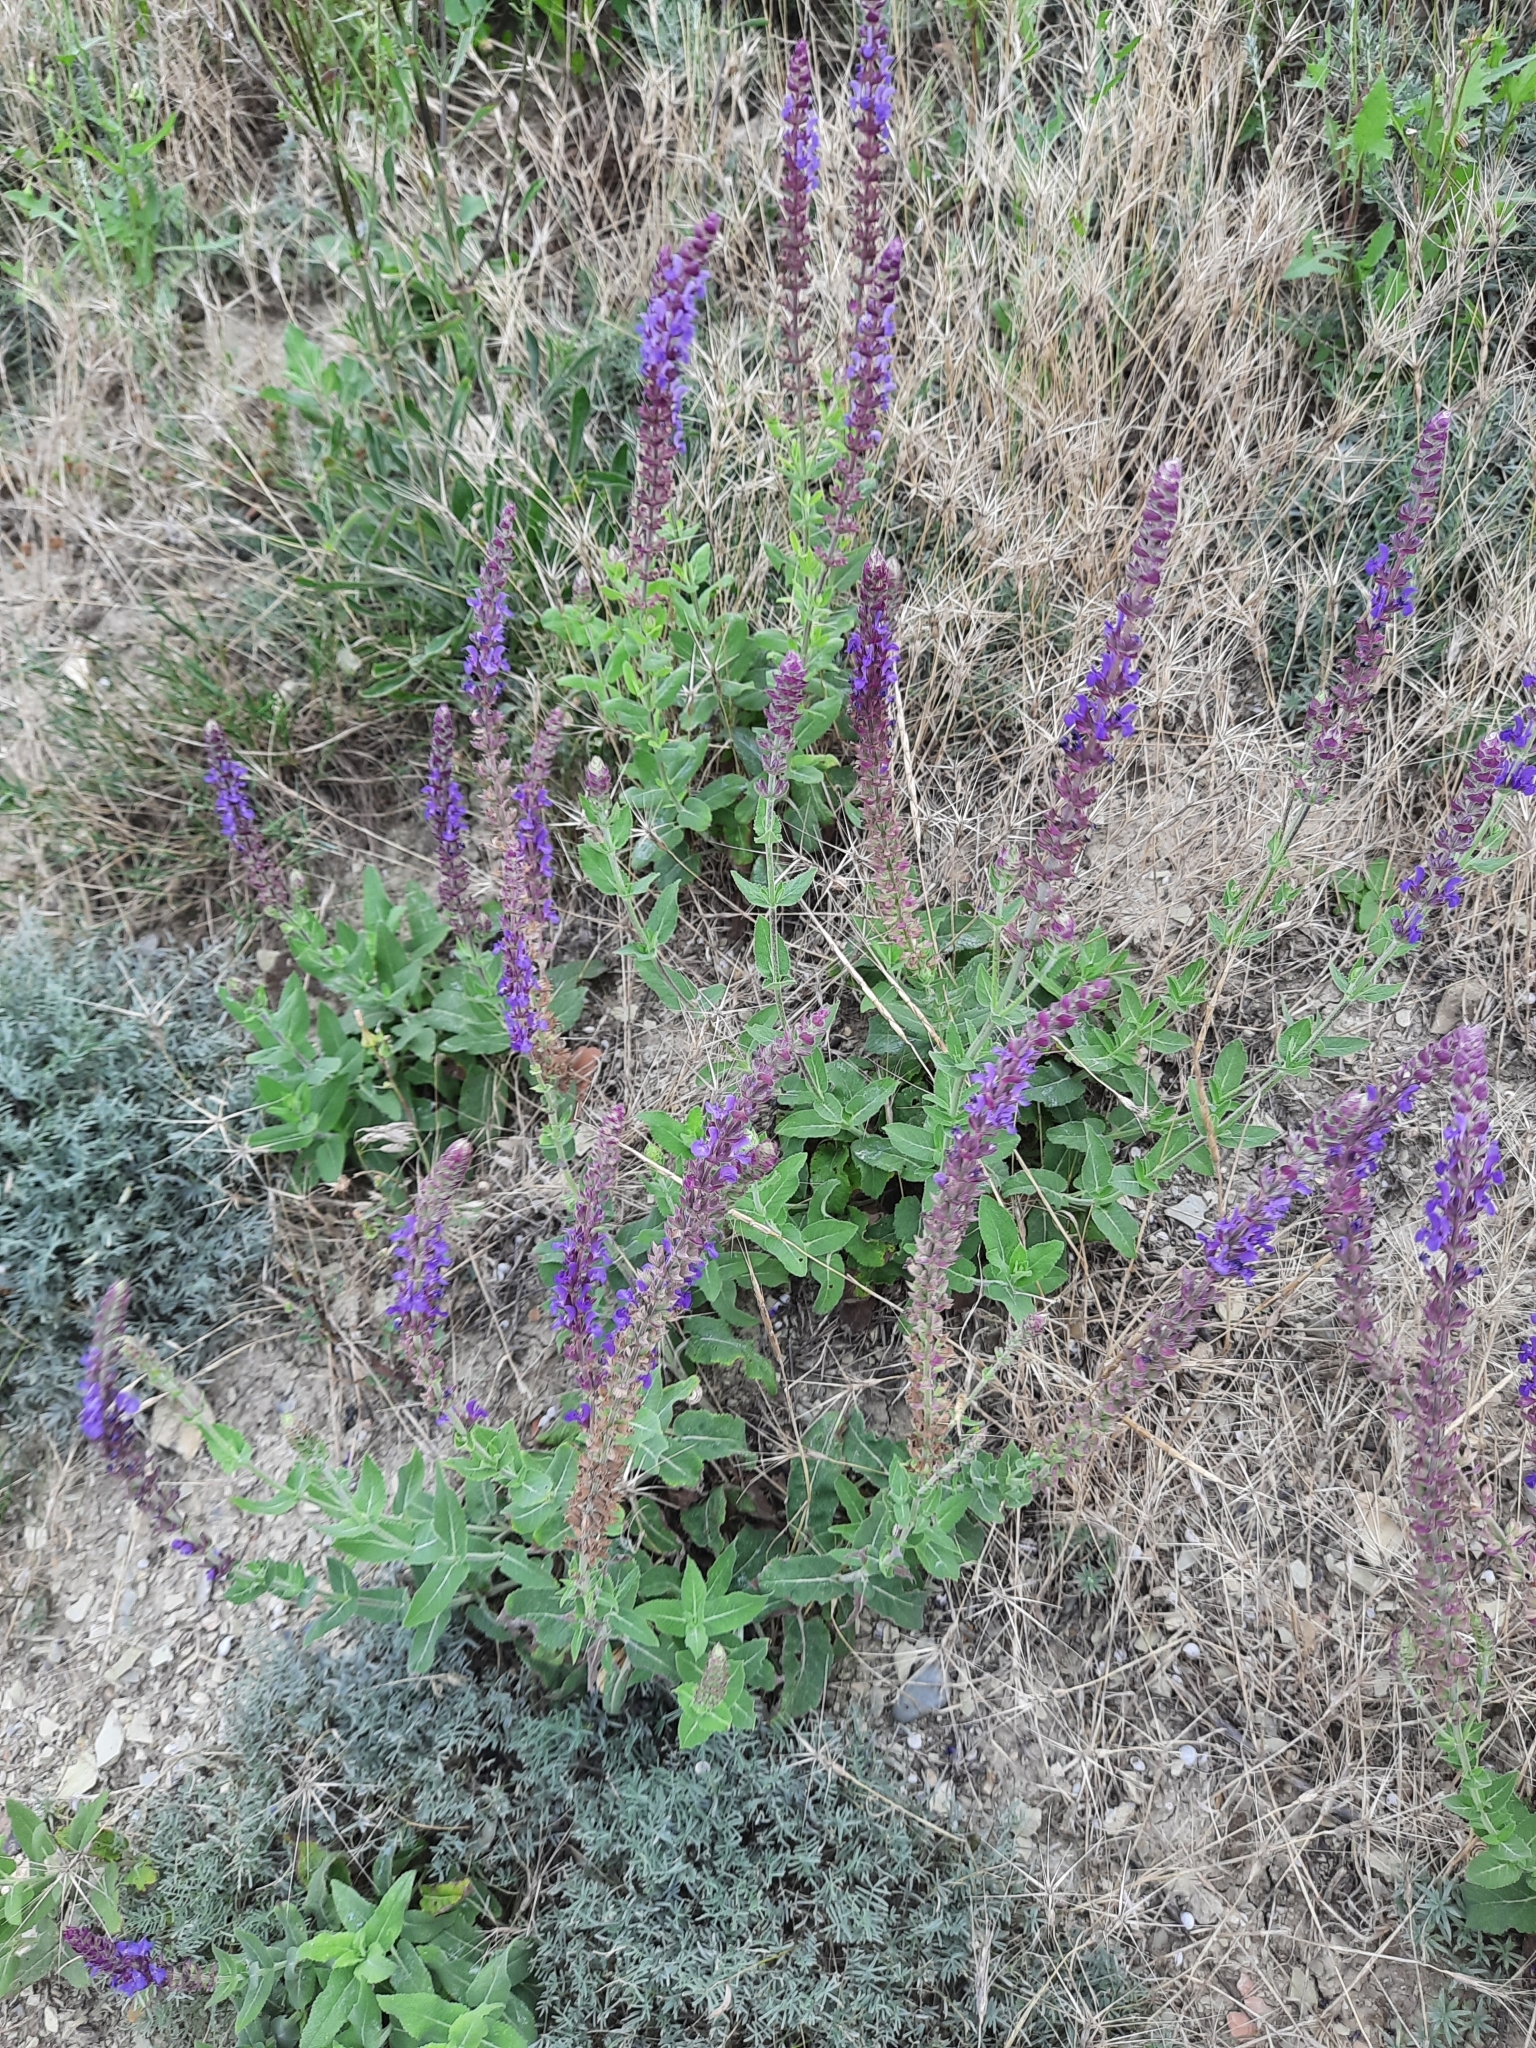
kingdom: Plantae
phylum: Tracheophyta
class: Magnoliopsida
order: Lamiales
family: Lamiaceae
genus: Salvia
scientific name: Salvia nemorosa
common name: Balkan clary
